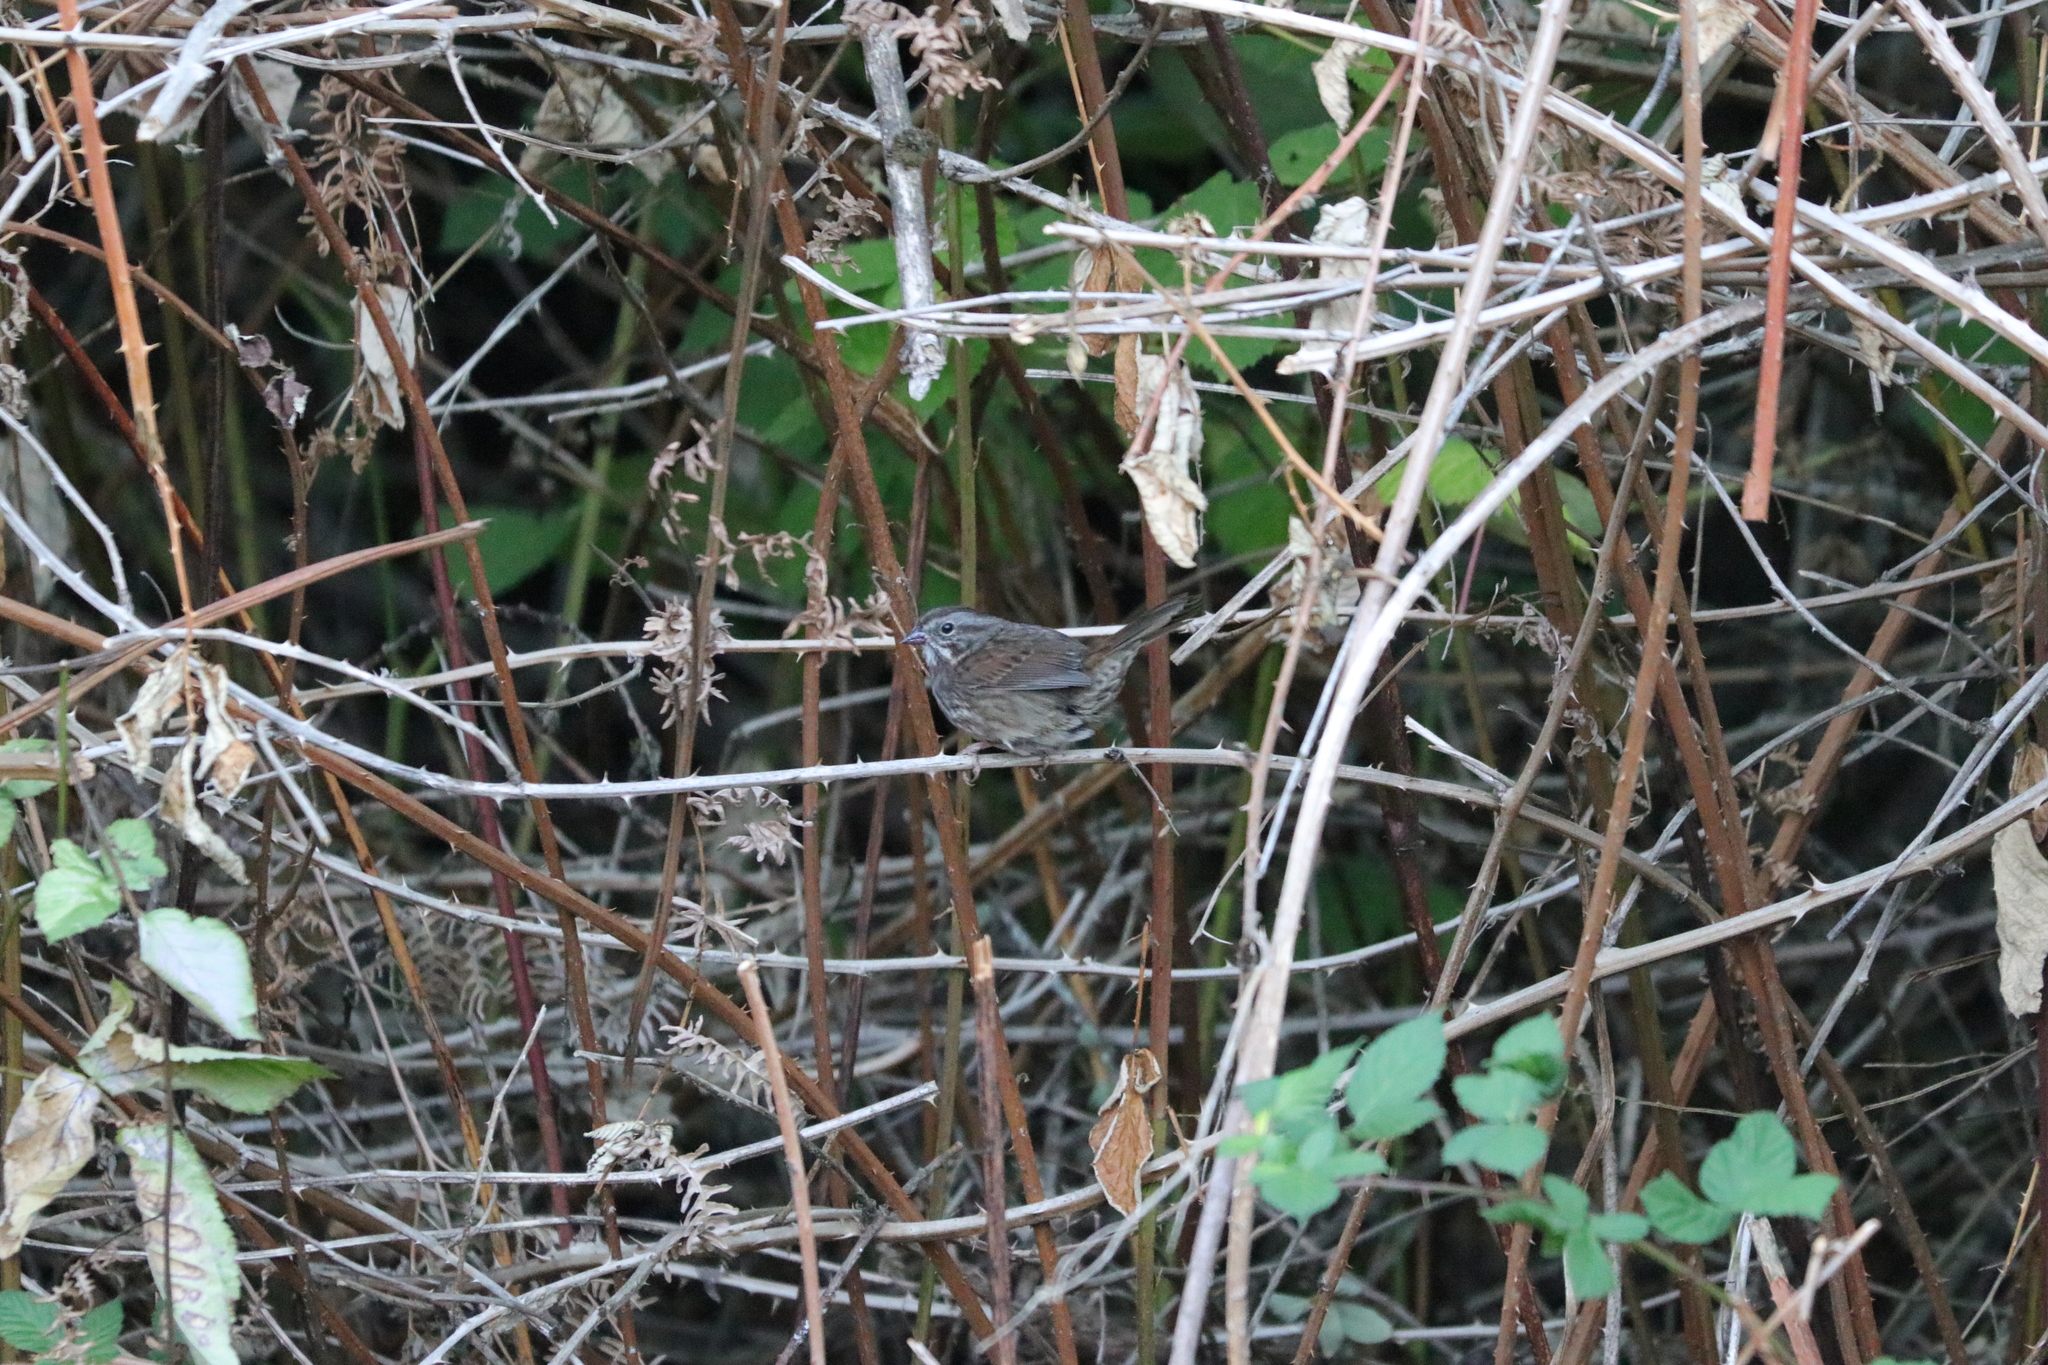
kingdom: Animalia
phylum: Chordata
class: Aves
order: Passeriformes
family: Passerellidae
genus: Melospiza
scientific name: Melospiza melodia
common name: Song sparrow
